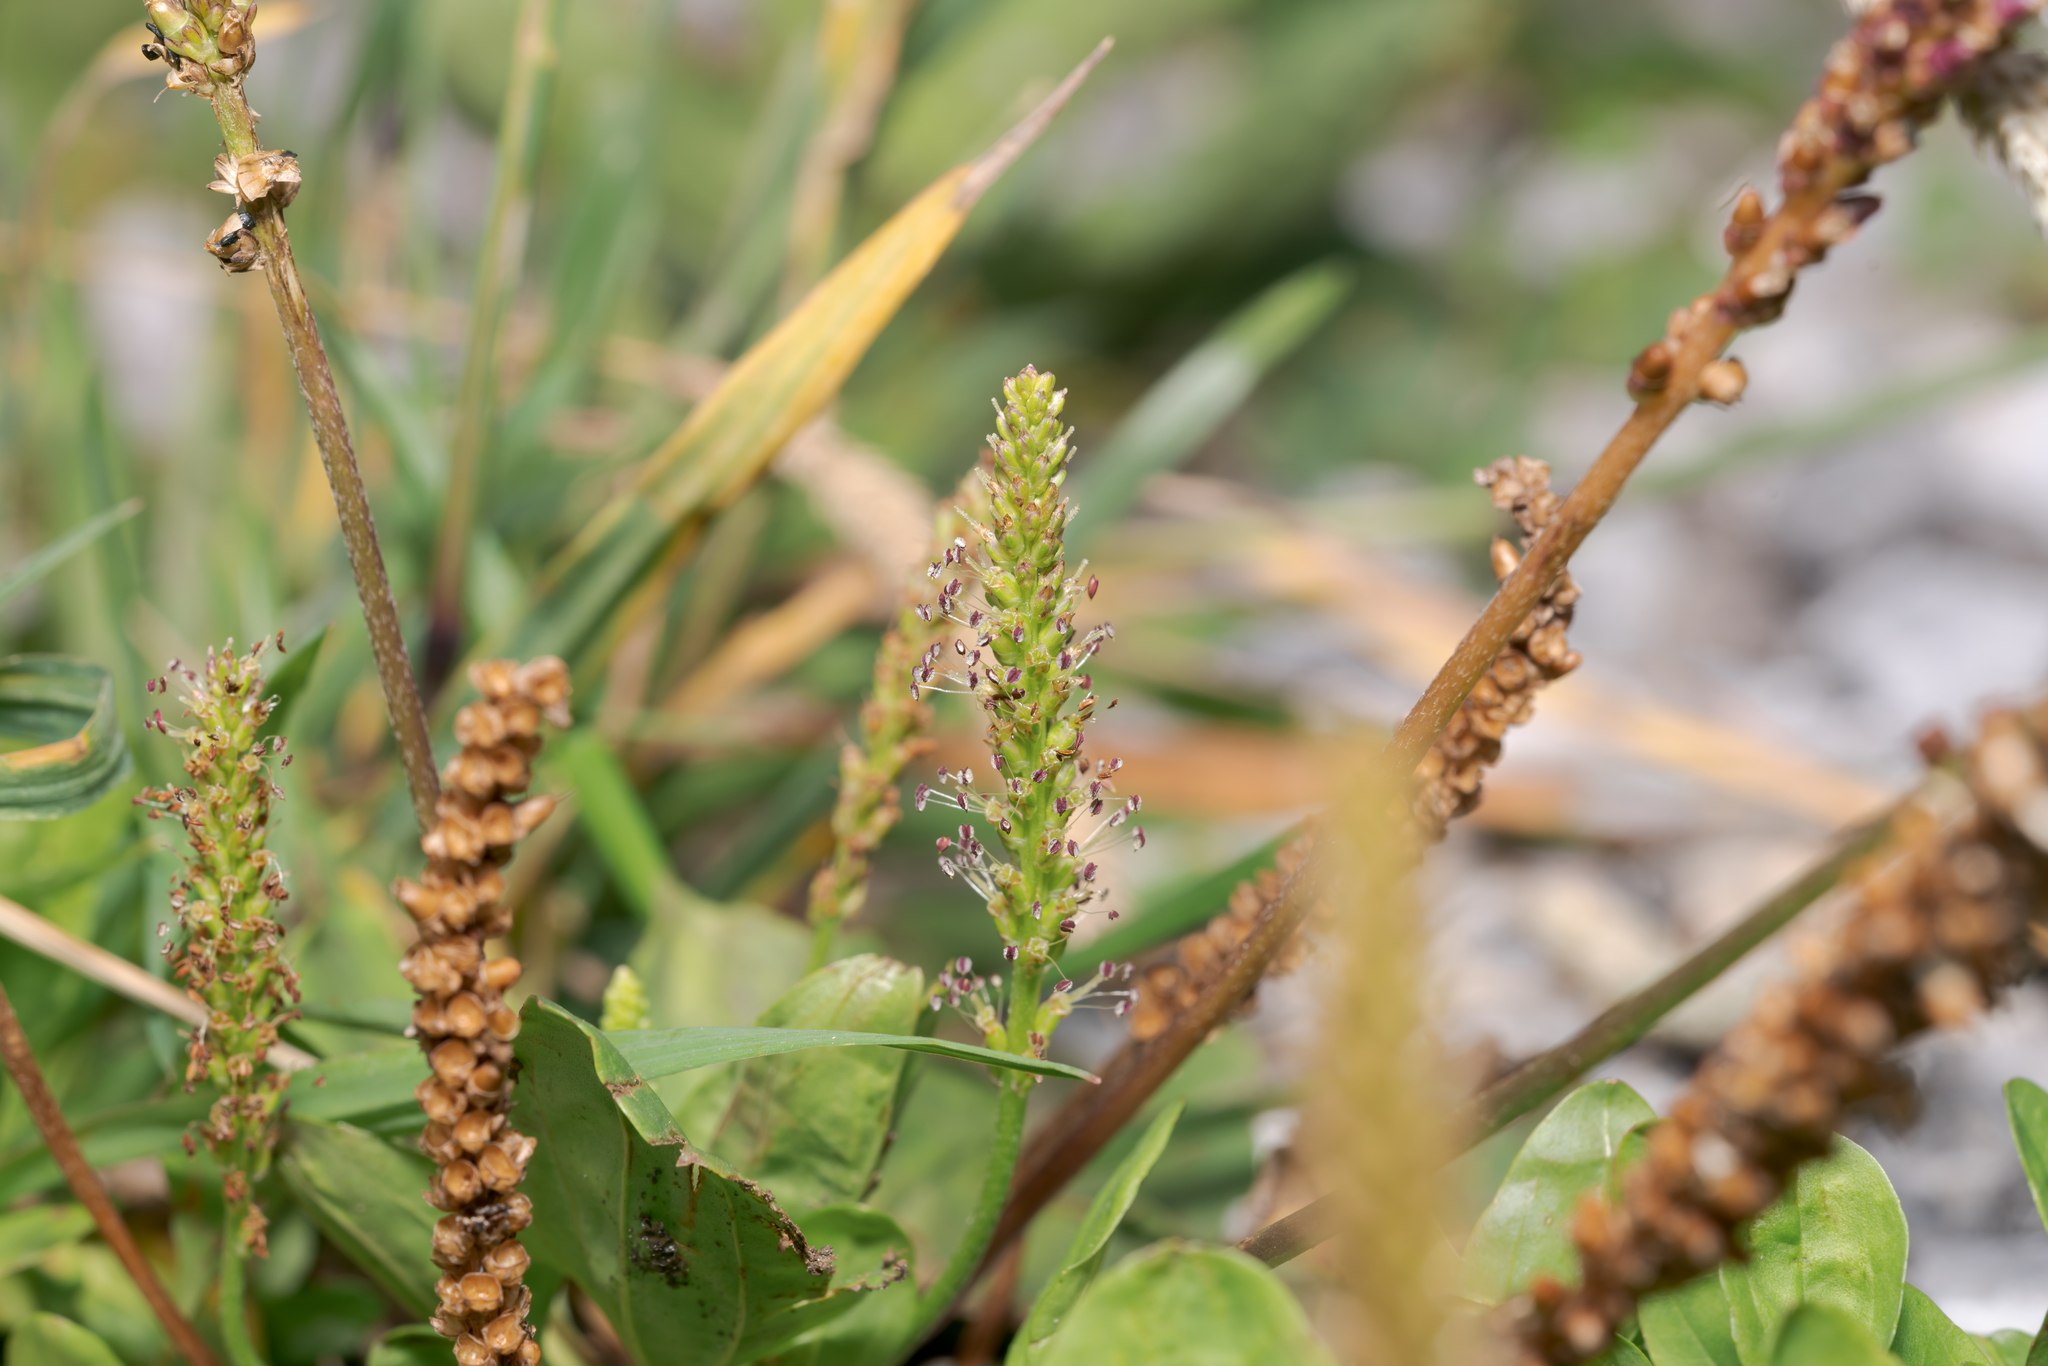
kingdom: Plantae
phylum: Tracheophyta
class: Magnoliopsida
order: Lamiales
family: Plantaginaceae
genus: Plantago
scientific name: Plantago major
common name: Common plantain
